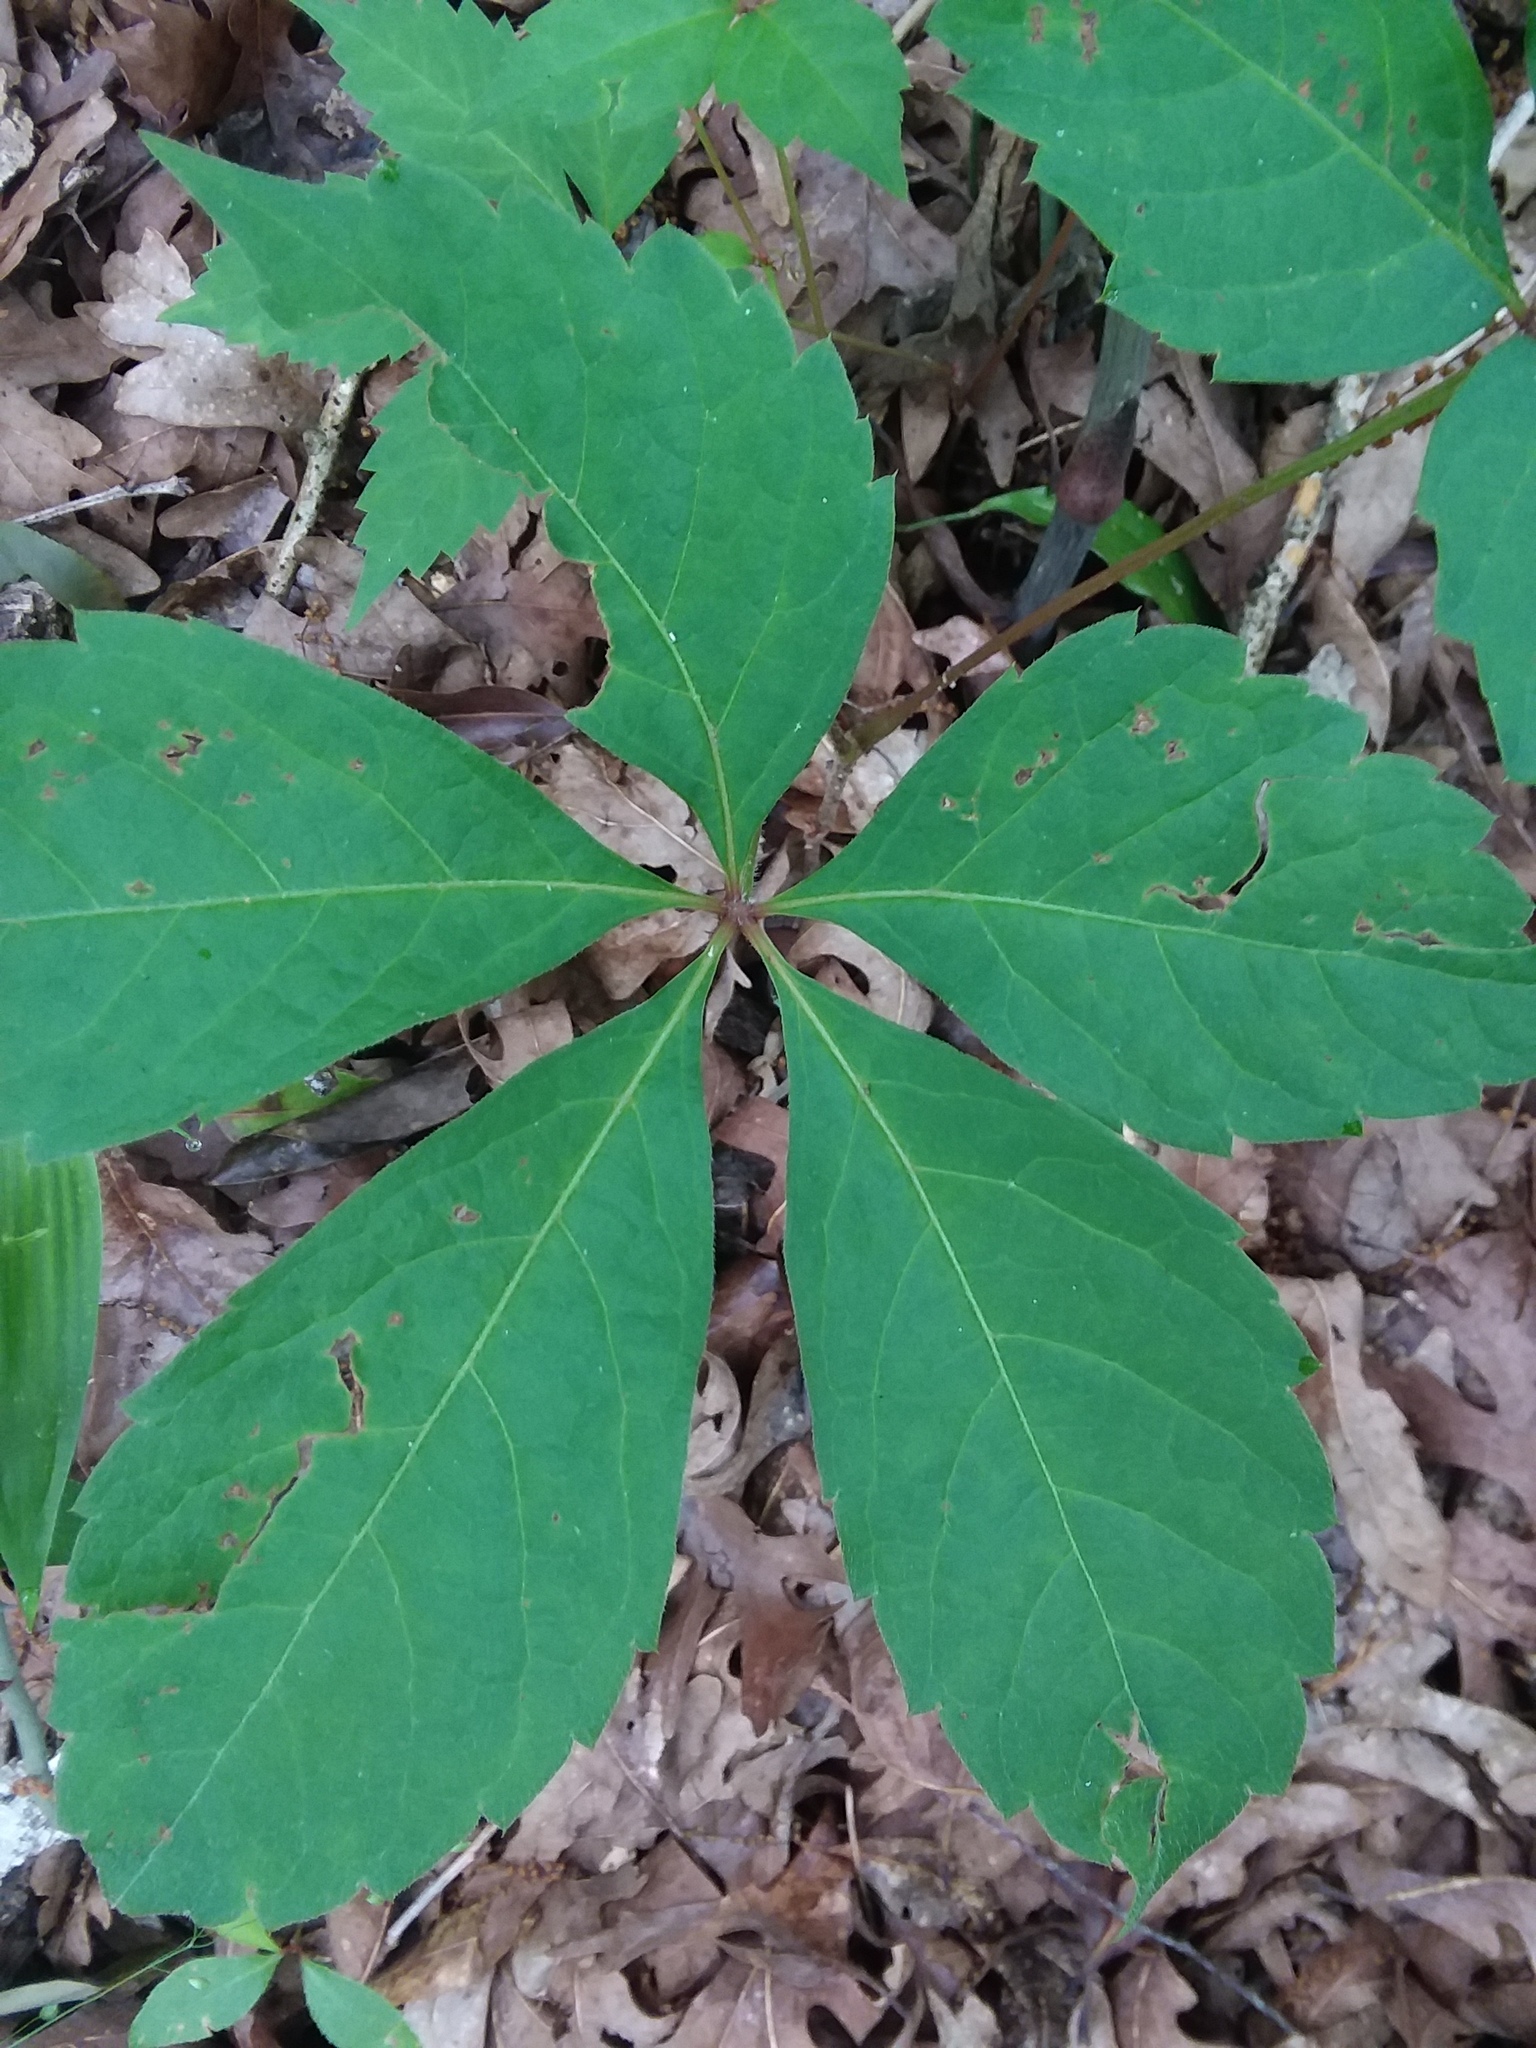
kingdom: Plantae
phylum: Tracheophyta
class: Magnoliopsida
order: Vitales
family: Vitaceae
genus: Parthenocissus
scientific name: Parthenocissus quinquefolia
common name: Virginia-creeper
